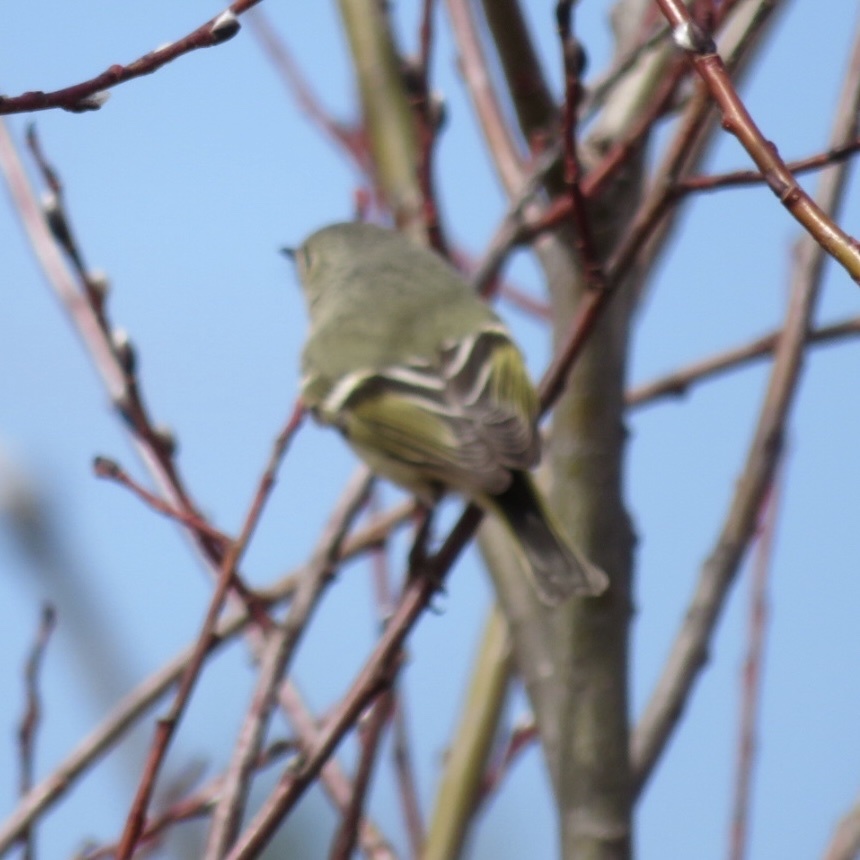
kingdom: Animalia
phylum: Chordata
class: Aves
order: Passeriformes
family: Regulidae
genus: Regulus
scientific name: Regulus calendula
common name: Ruby-crowned kinglet
